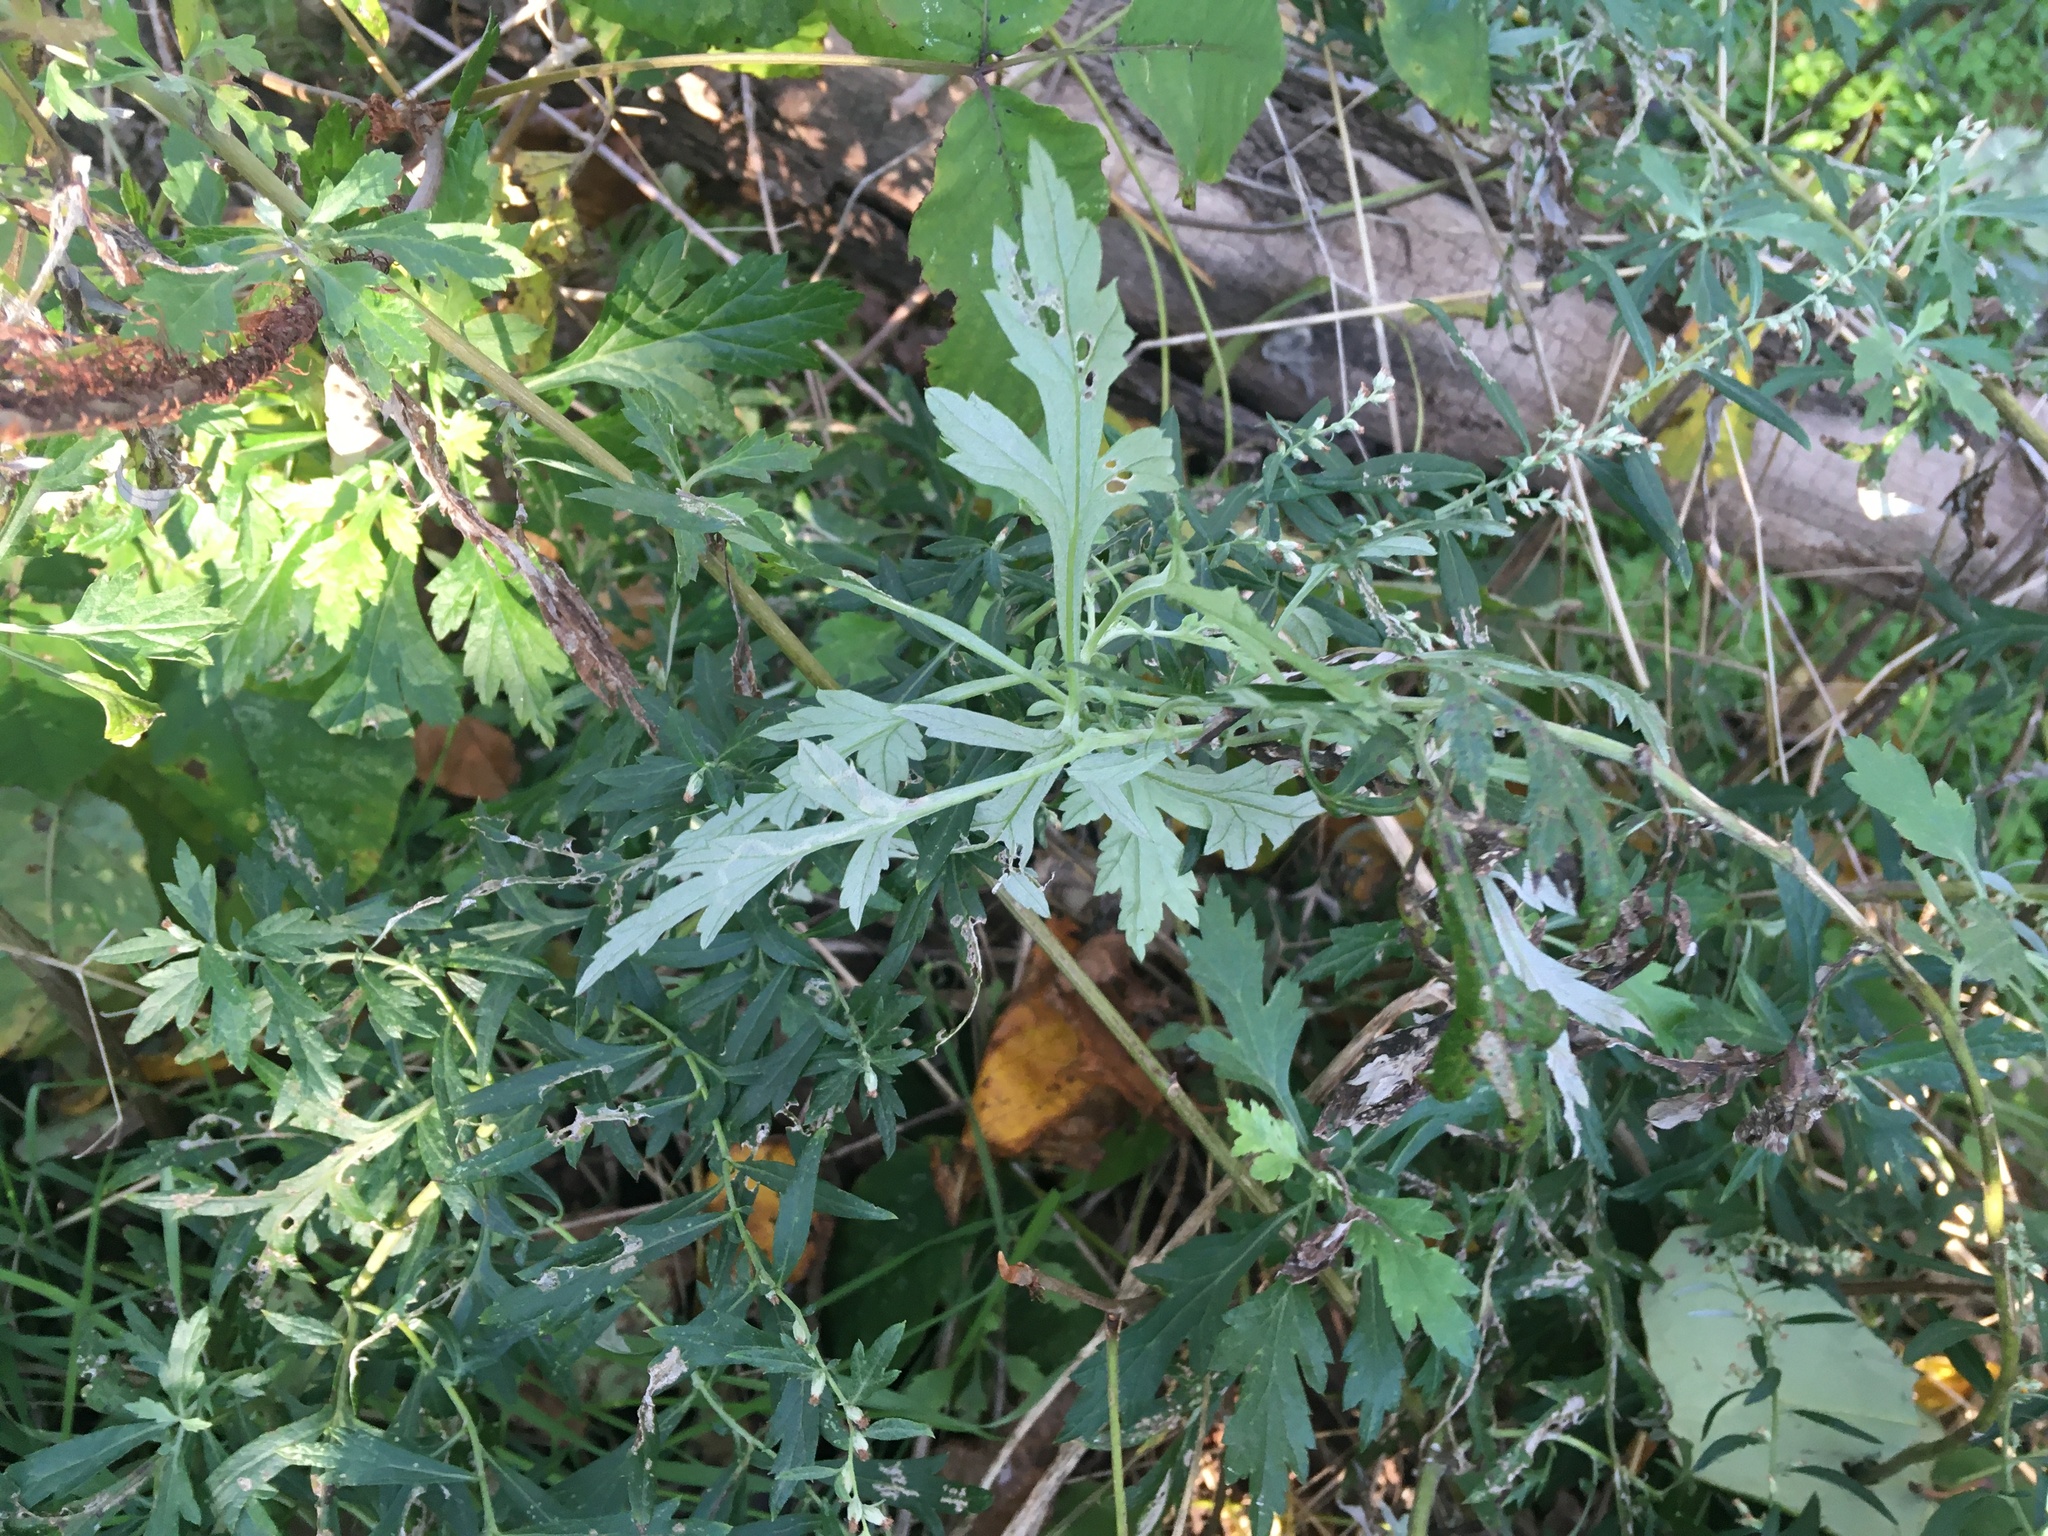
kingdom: Plantae
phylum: Tracheophyta
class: Magnoliopsida
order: Asterales
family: Asteraceae
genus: Artemisia
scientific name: Artemisia vulgaris
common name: Mugwort
